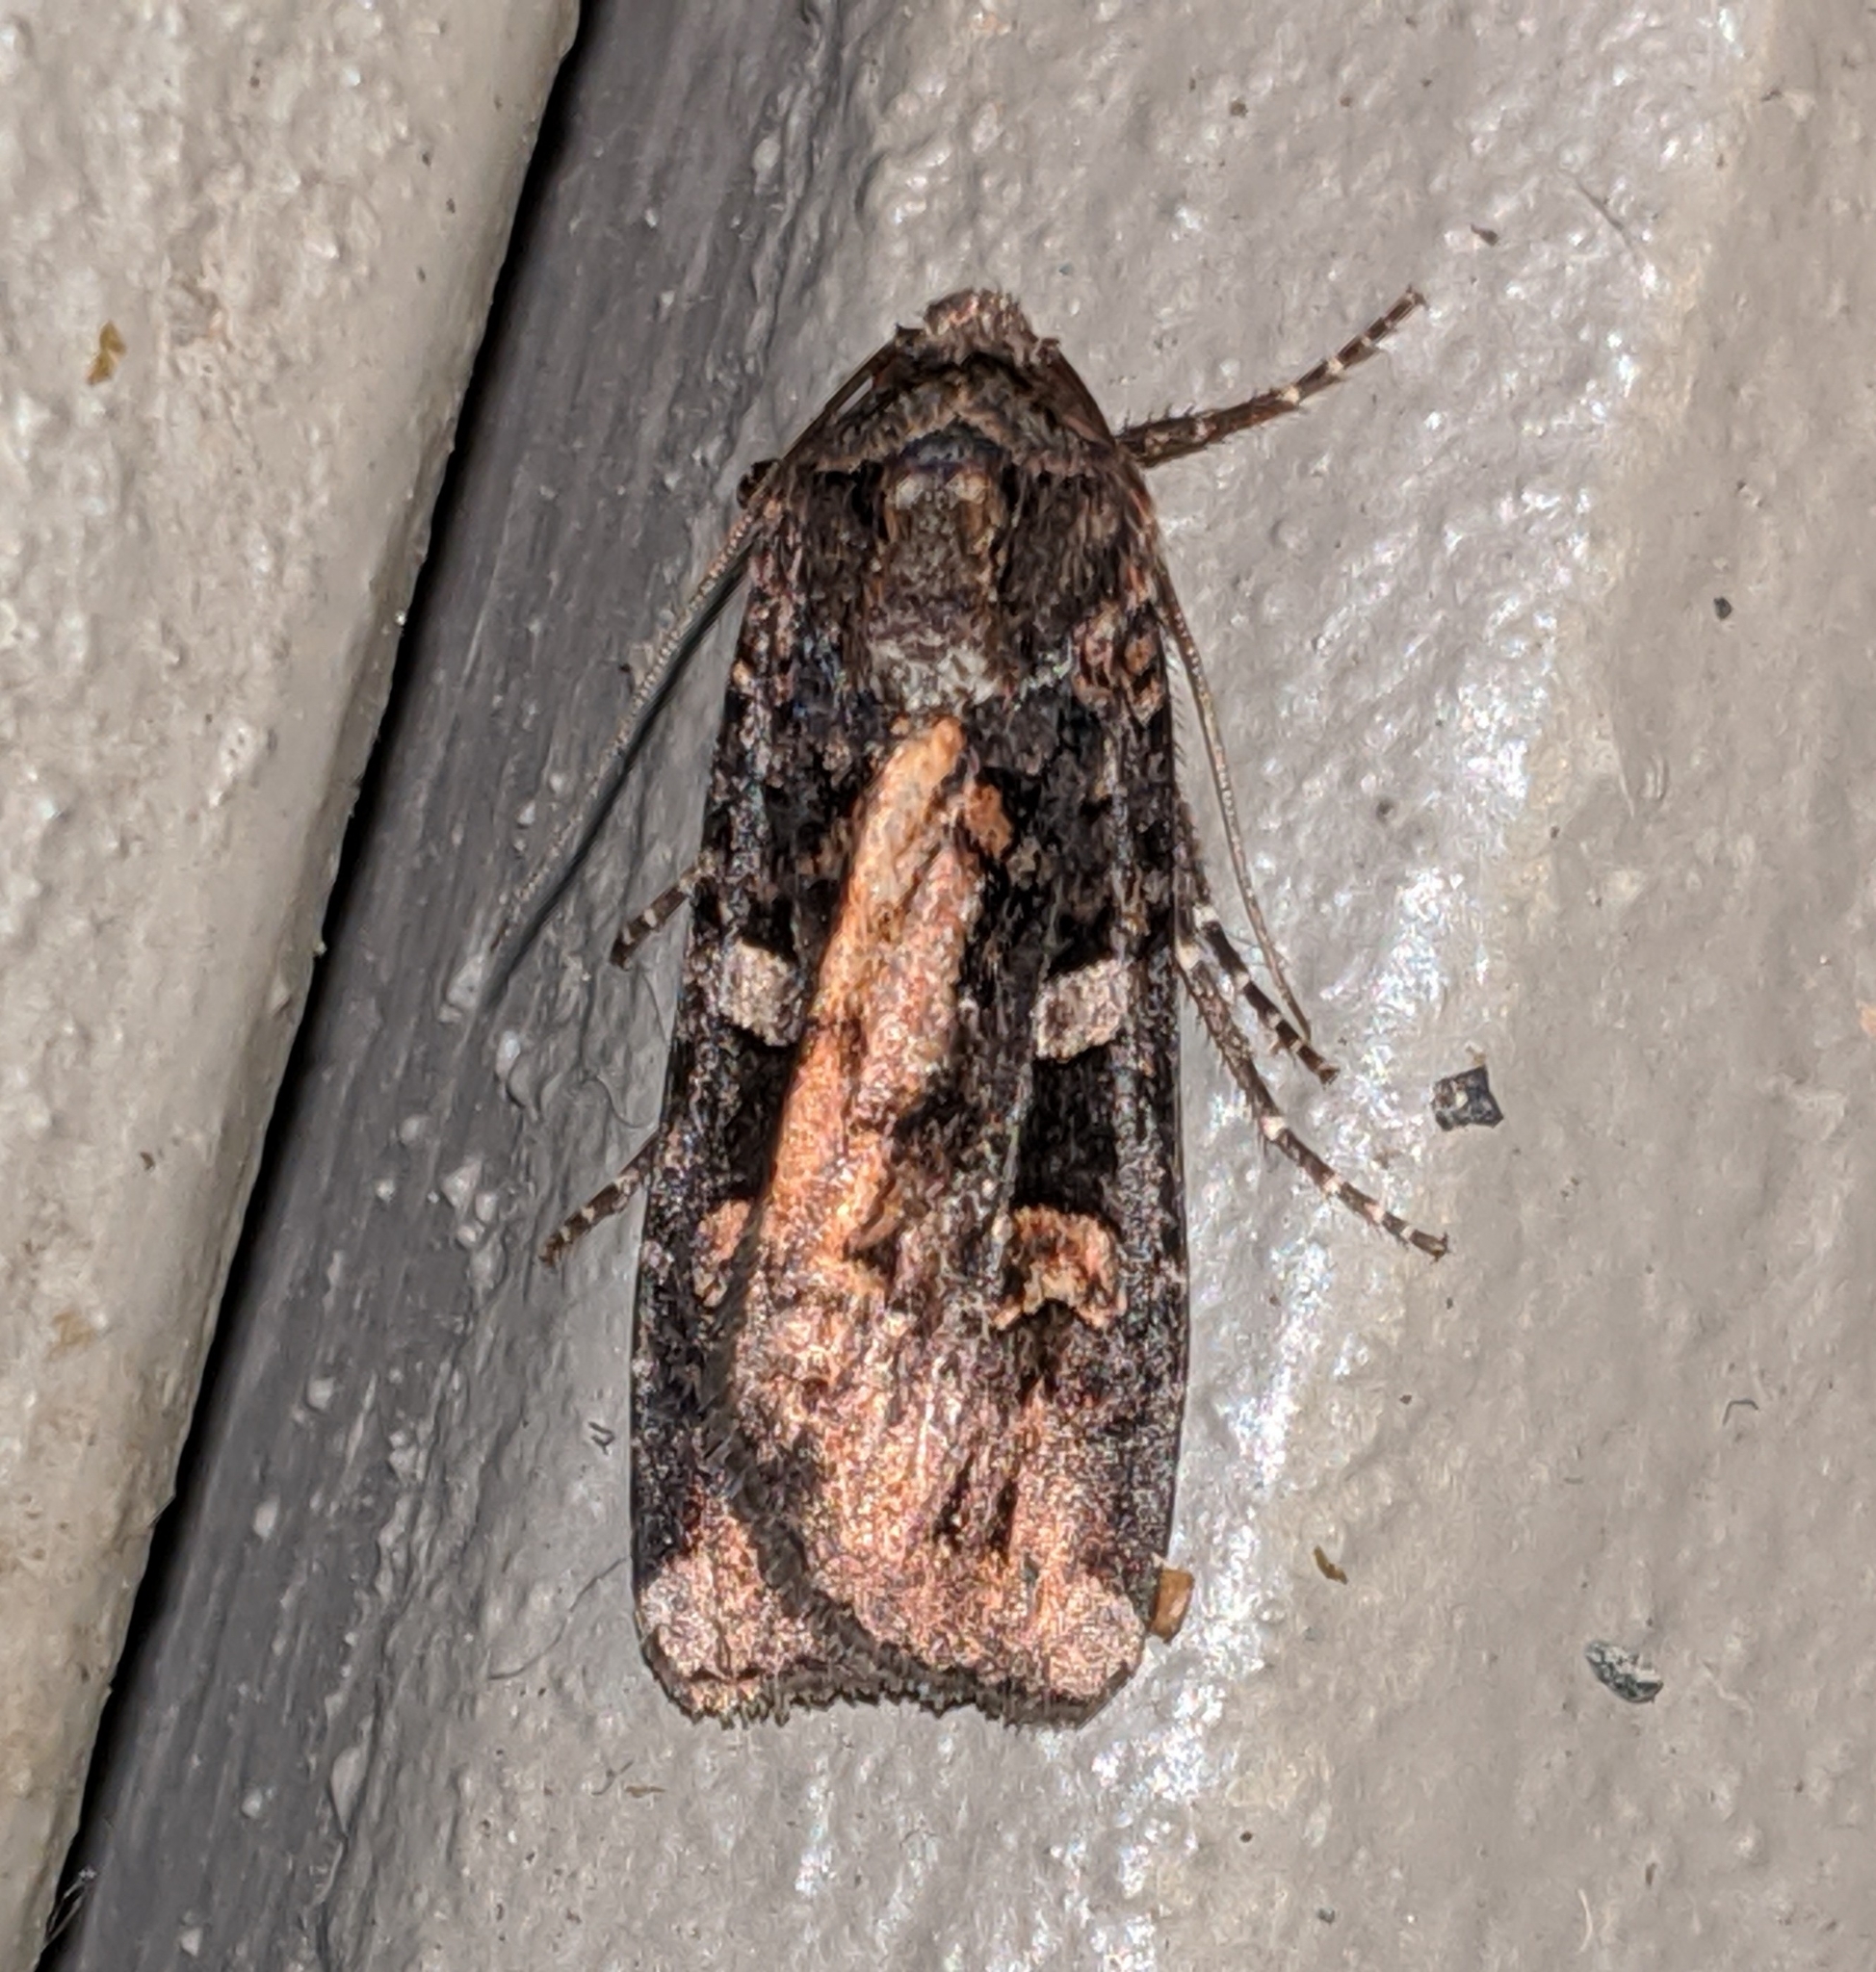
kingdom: Animalia
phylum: Arthropoda
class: Insecta
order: Lepidoptera
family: Noctuidae
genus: Actebia
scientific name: Actebia fennica
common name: Eversmann's rustic
